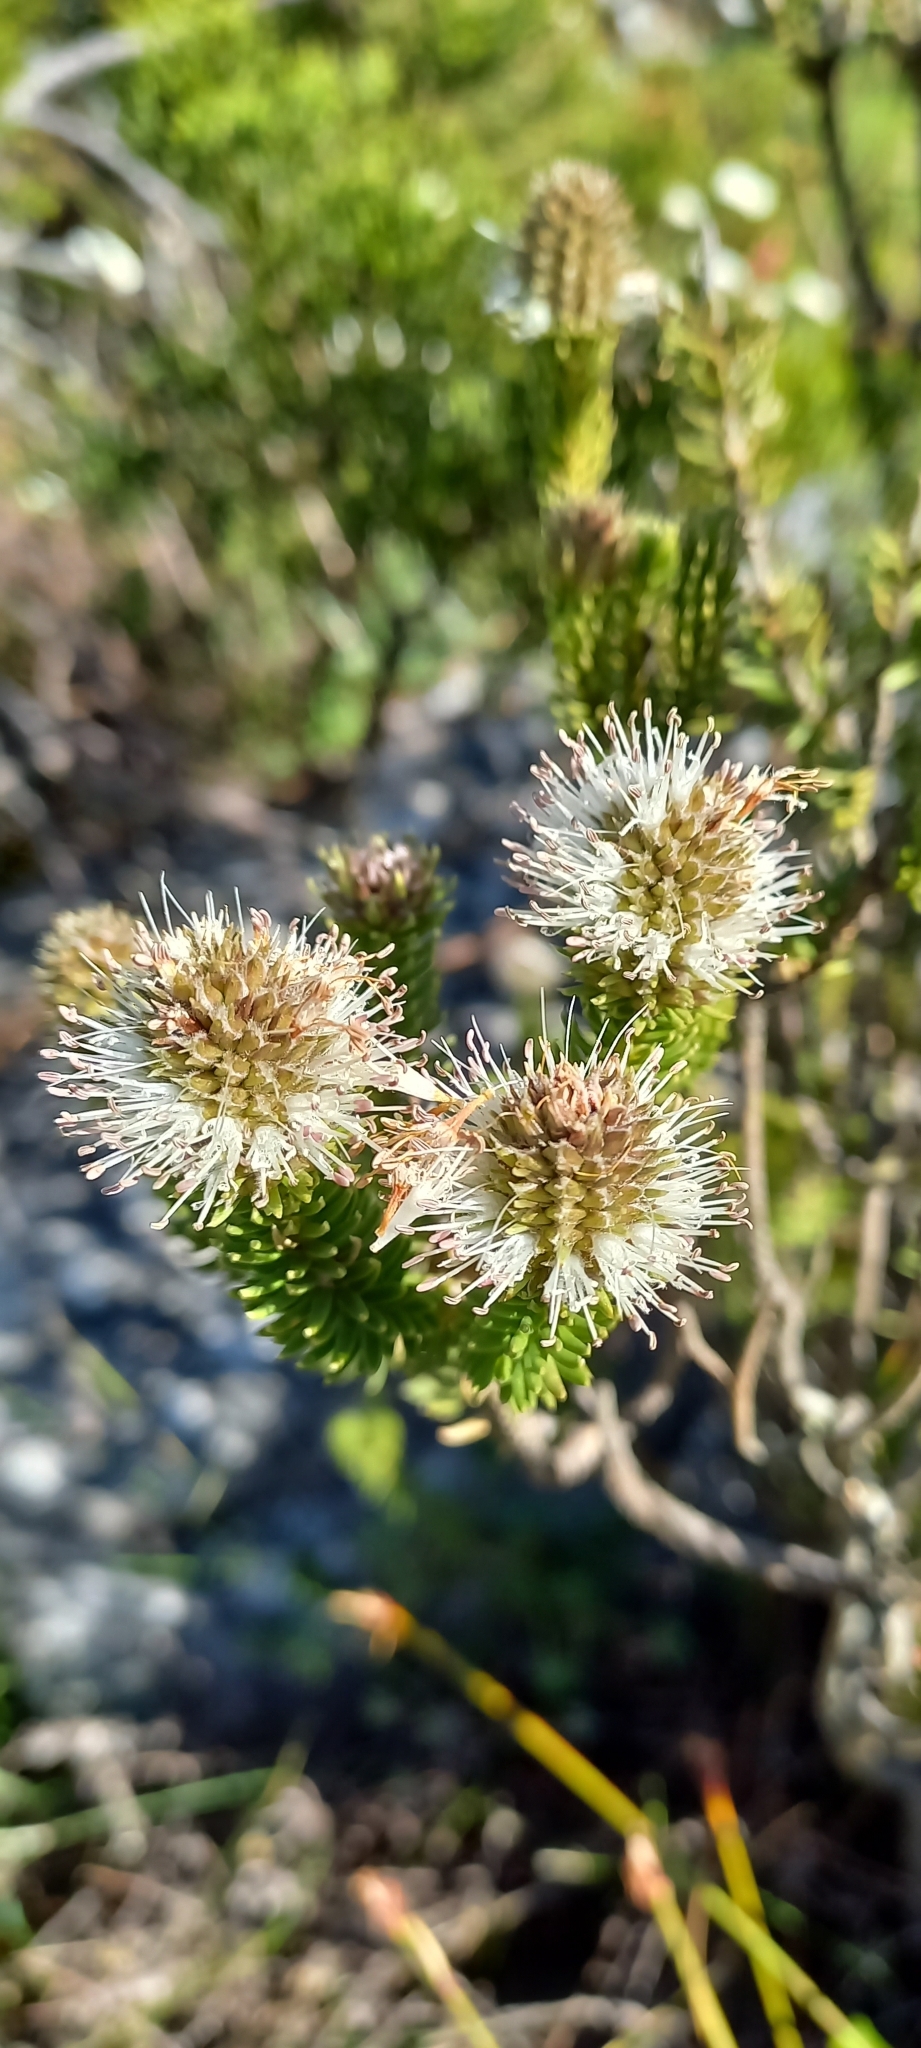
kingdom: Plantae
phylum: Tracheophyta
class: Magnoliopsida
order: Lamiales
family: Stilbaceae
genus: Stilbe
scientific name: Stilbe vestita
